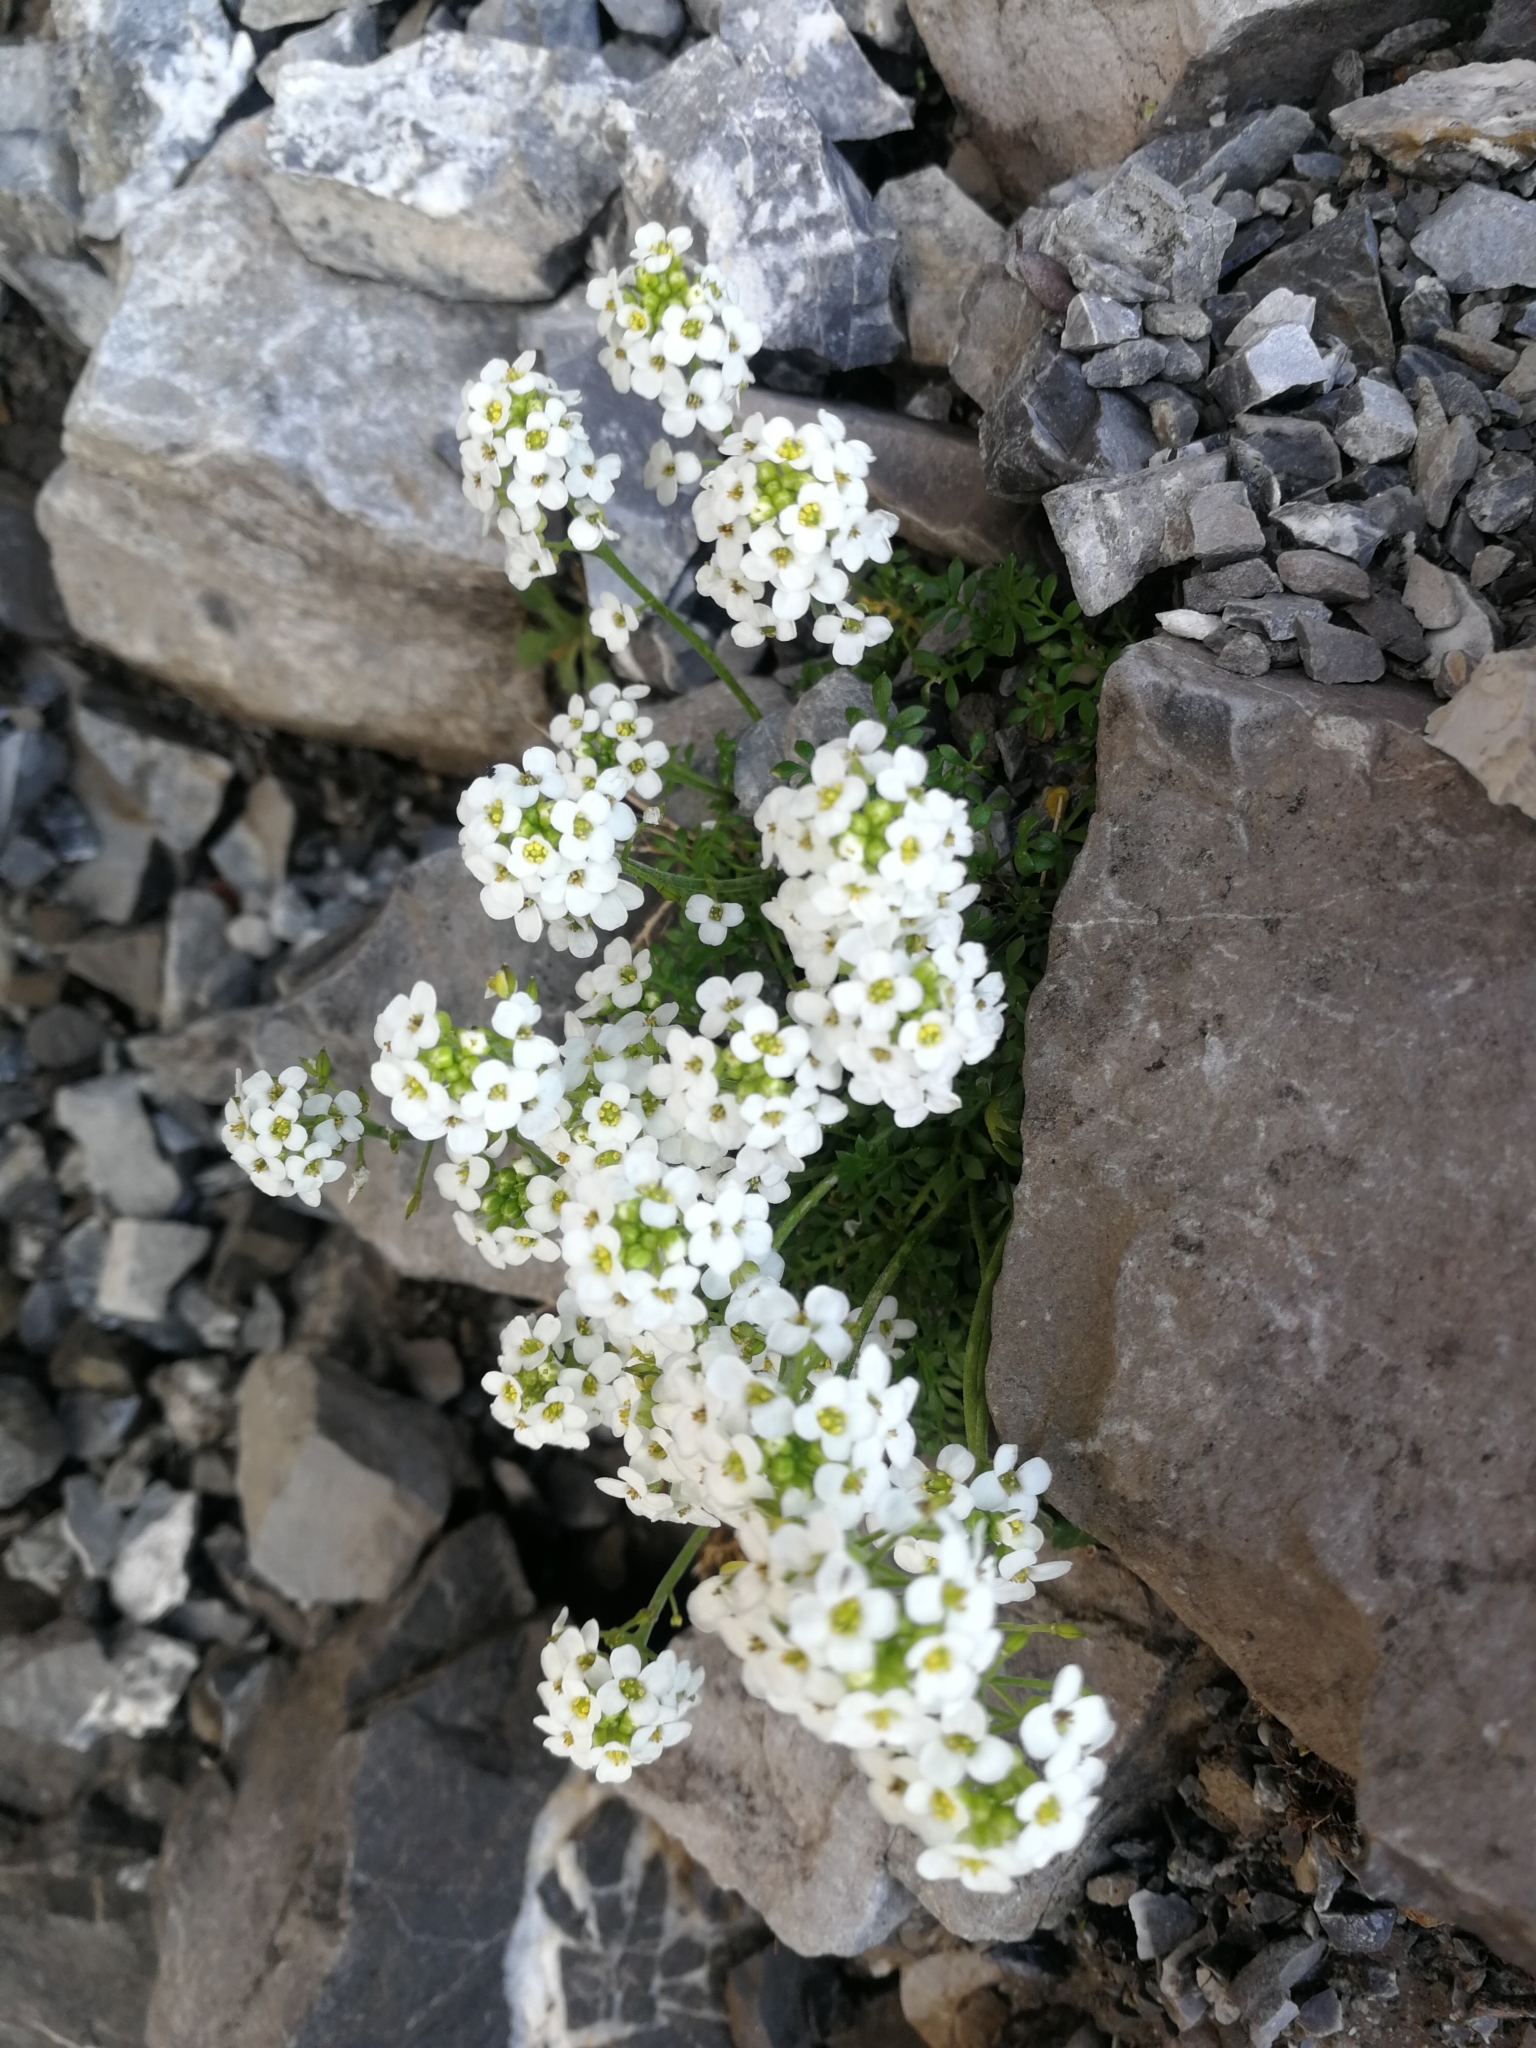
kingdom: Plantae
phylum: Tracheophyta
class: Magnoliopsida
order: Brassicales
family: Brassicaceae
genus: Hornungia
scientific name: Hornungia alpina
